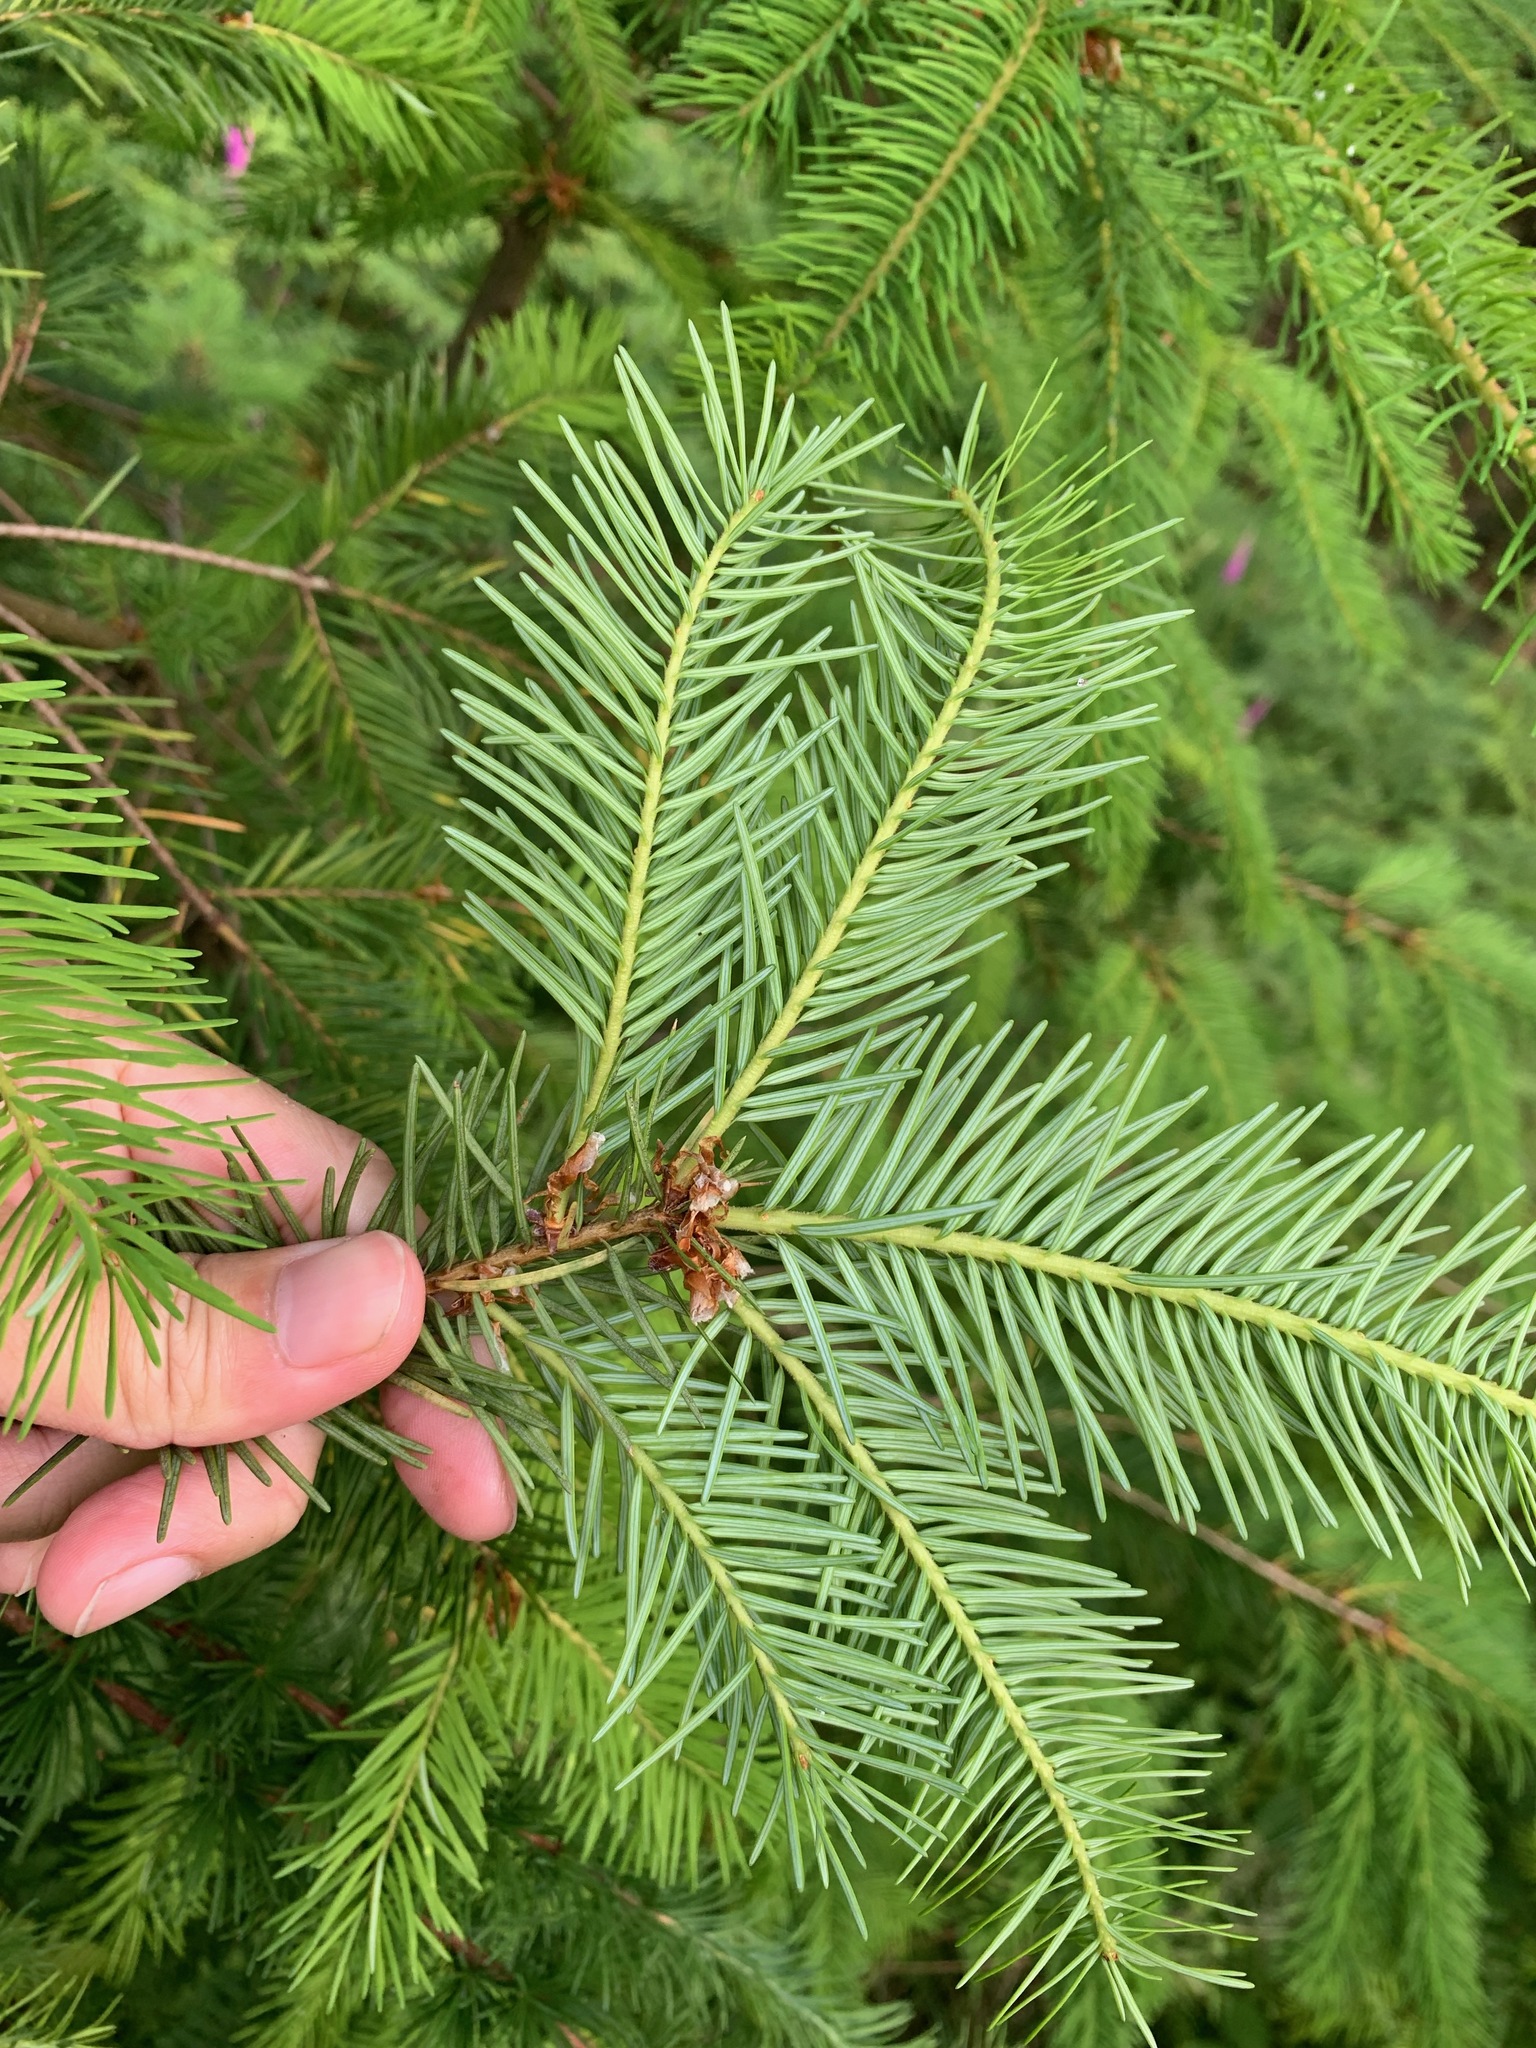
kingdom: Plantae
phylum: Tracheophyta
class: Pinopsida
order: Pinales
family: Pinaceae
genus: Pseudotsuga
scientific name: Pseudotsuga menziesii
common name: Douglas fir
